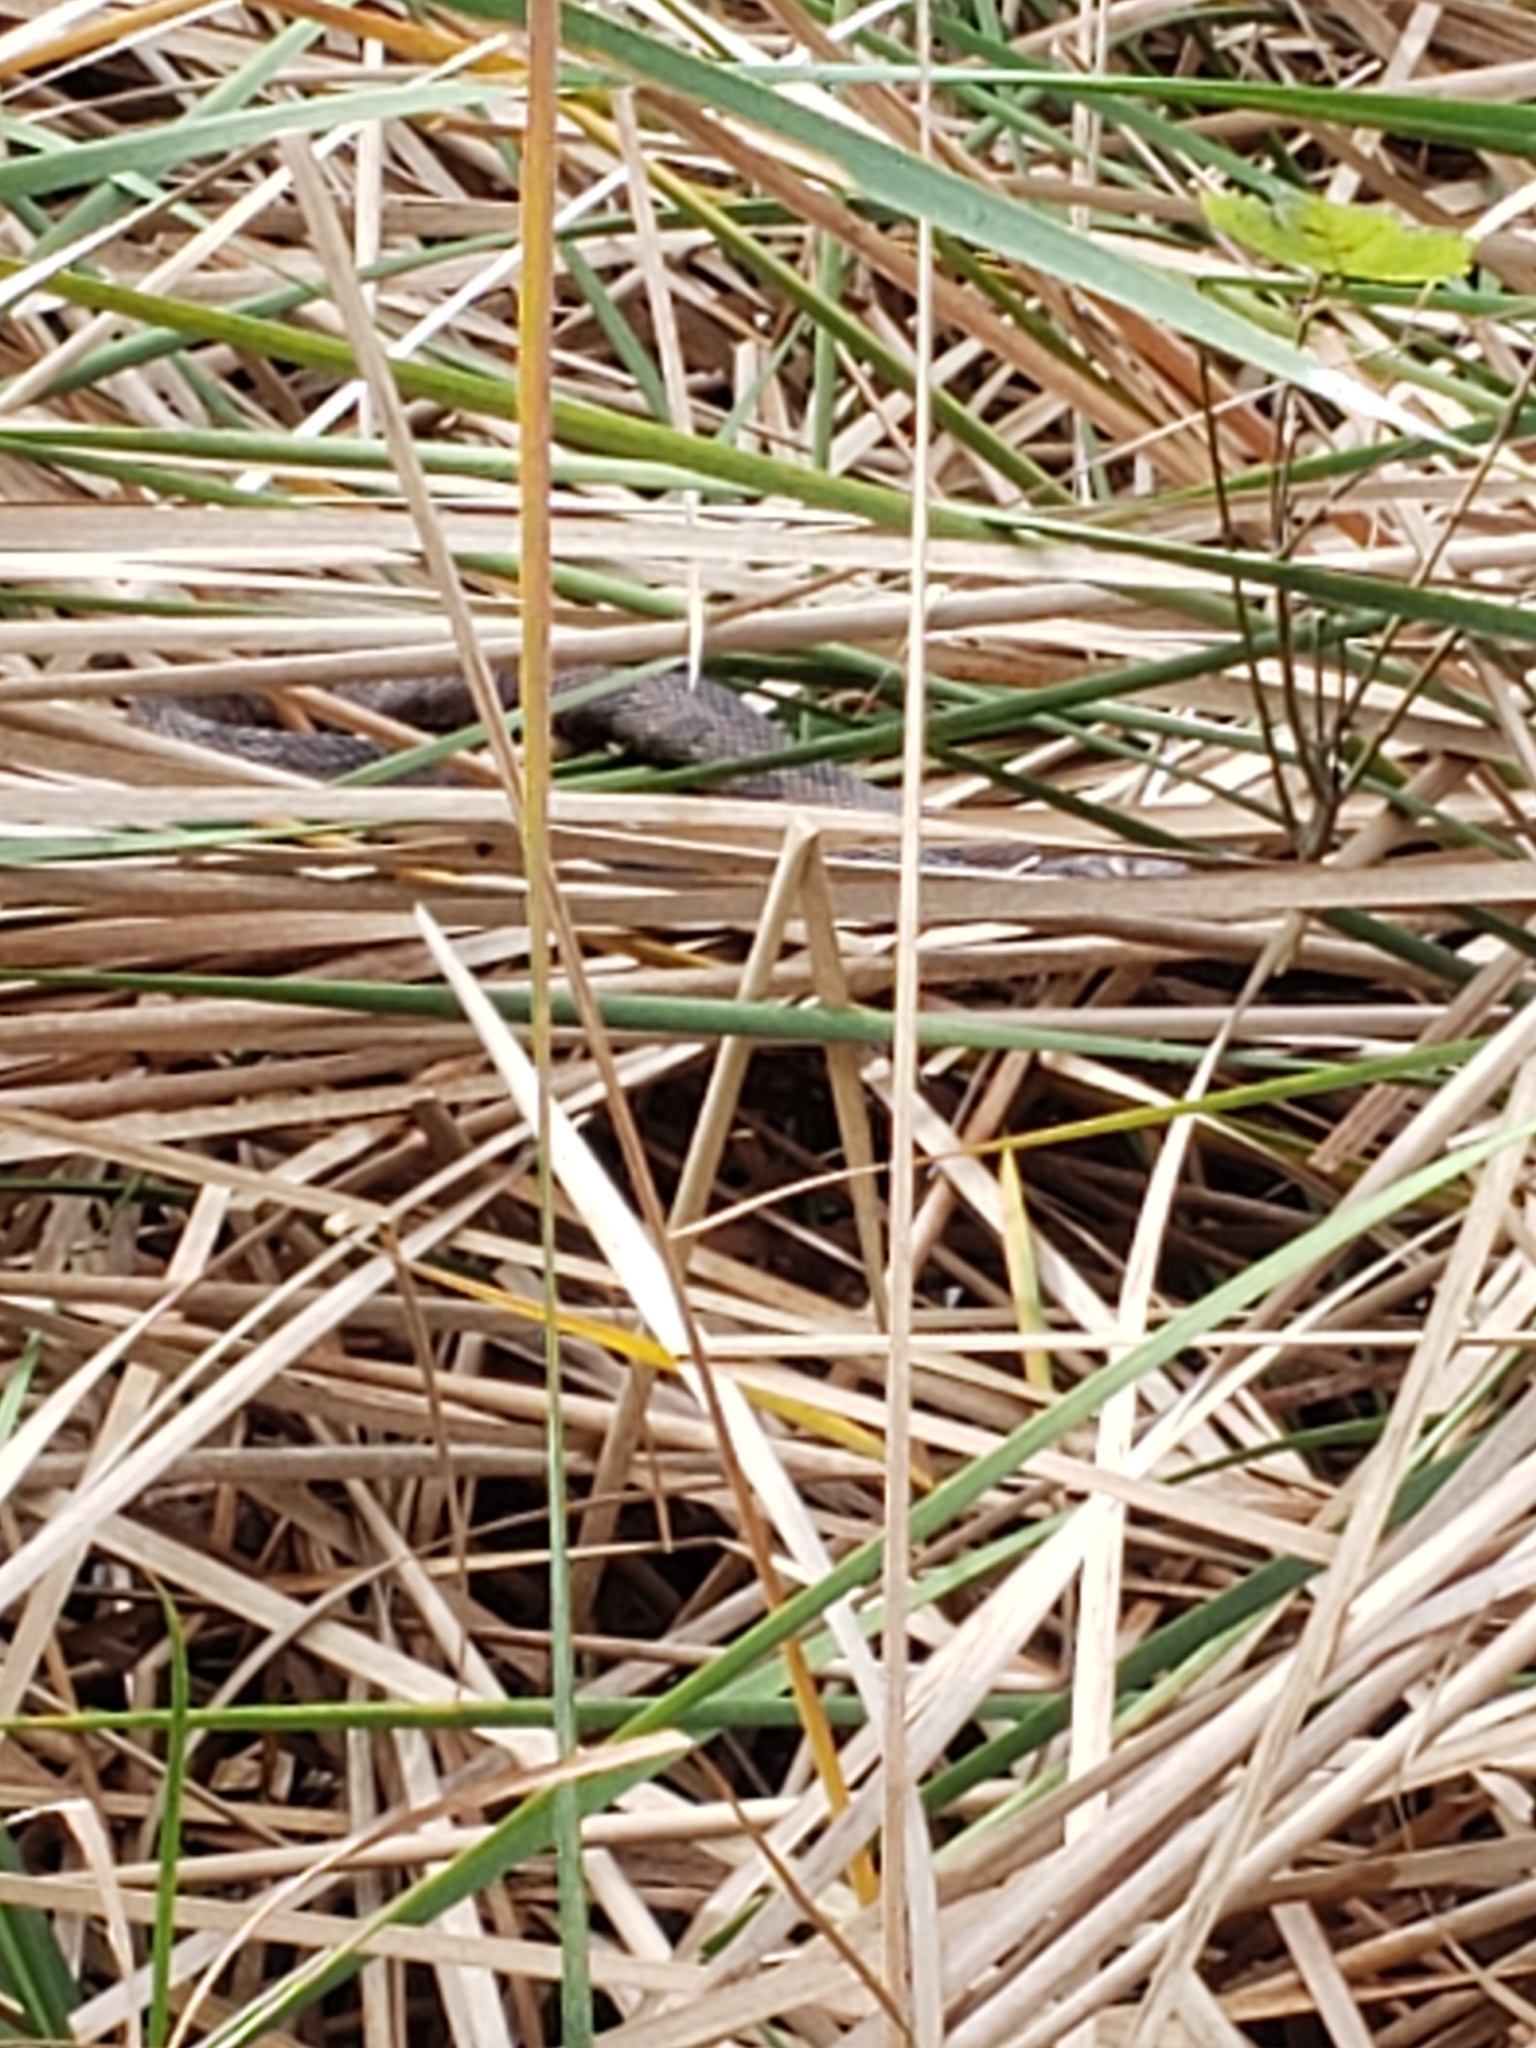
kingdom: Animalia
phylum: Chordata
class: Squamata
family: Colubridae
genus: Nerodia
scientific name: Nerodia taxispilota
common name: Brown water snake
